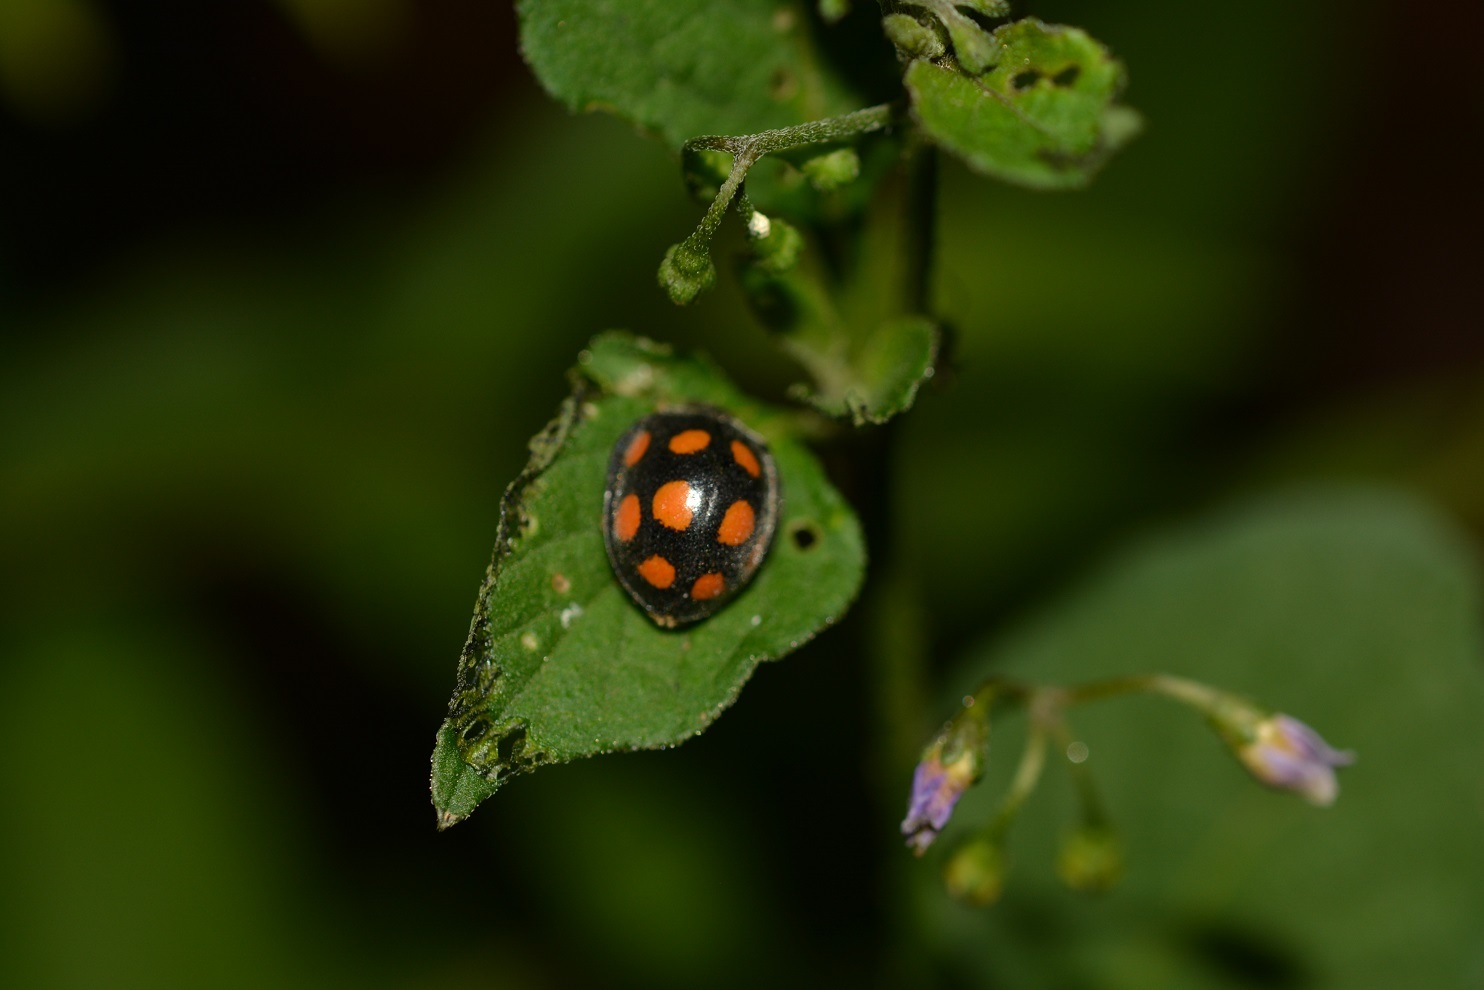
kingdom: Animalia
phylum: Arthropoda
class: Insecta
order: Coleoptera
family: Coccinellidae
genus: Epilachna
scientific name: Epilachna
